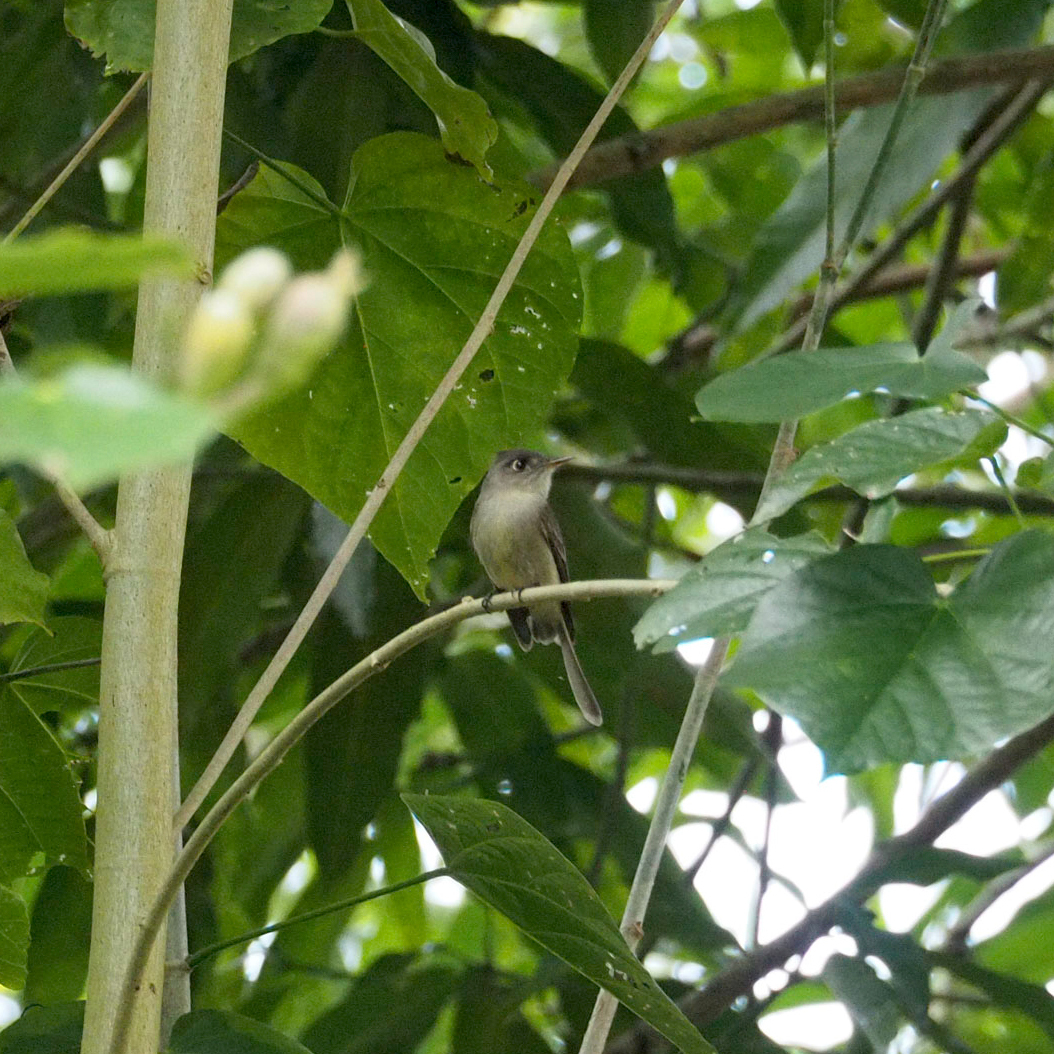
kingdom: Animalia
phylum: Chordata
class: Aves
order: Passeriformes
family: Tyrannidae
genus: Contopus
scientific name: Contopus caribaeus
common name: Cuban pewee
